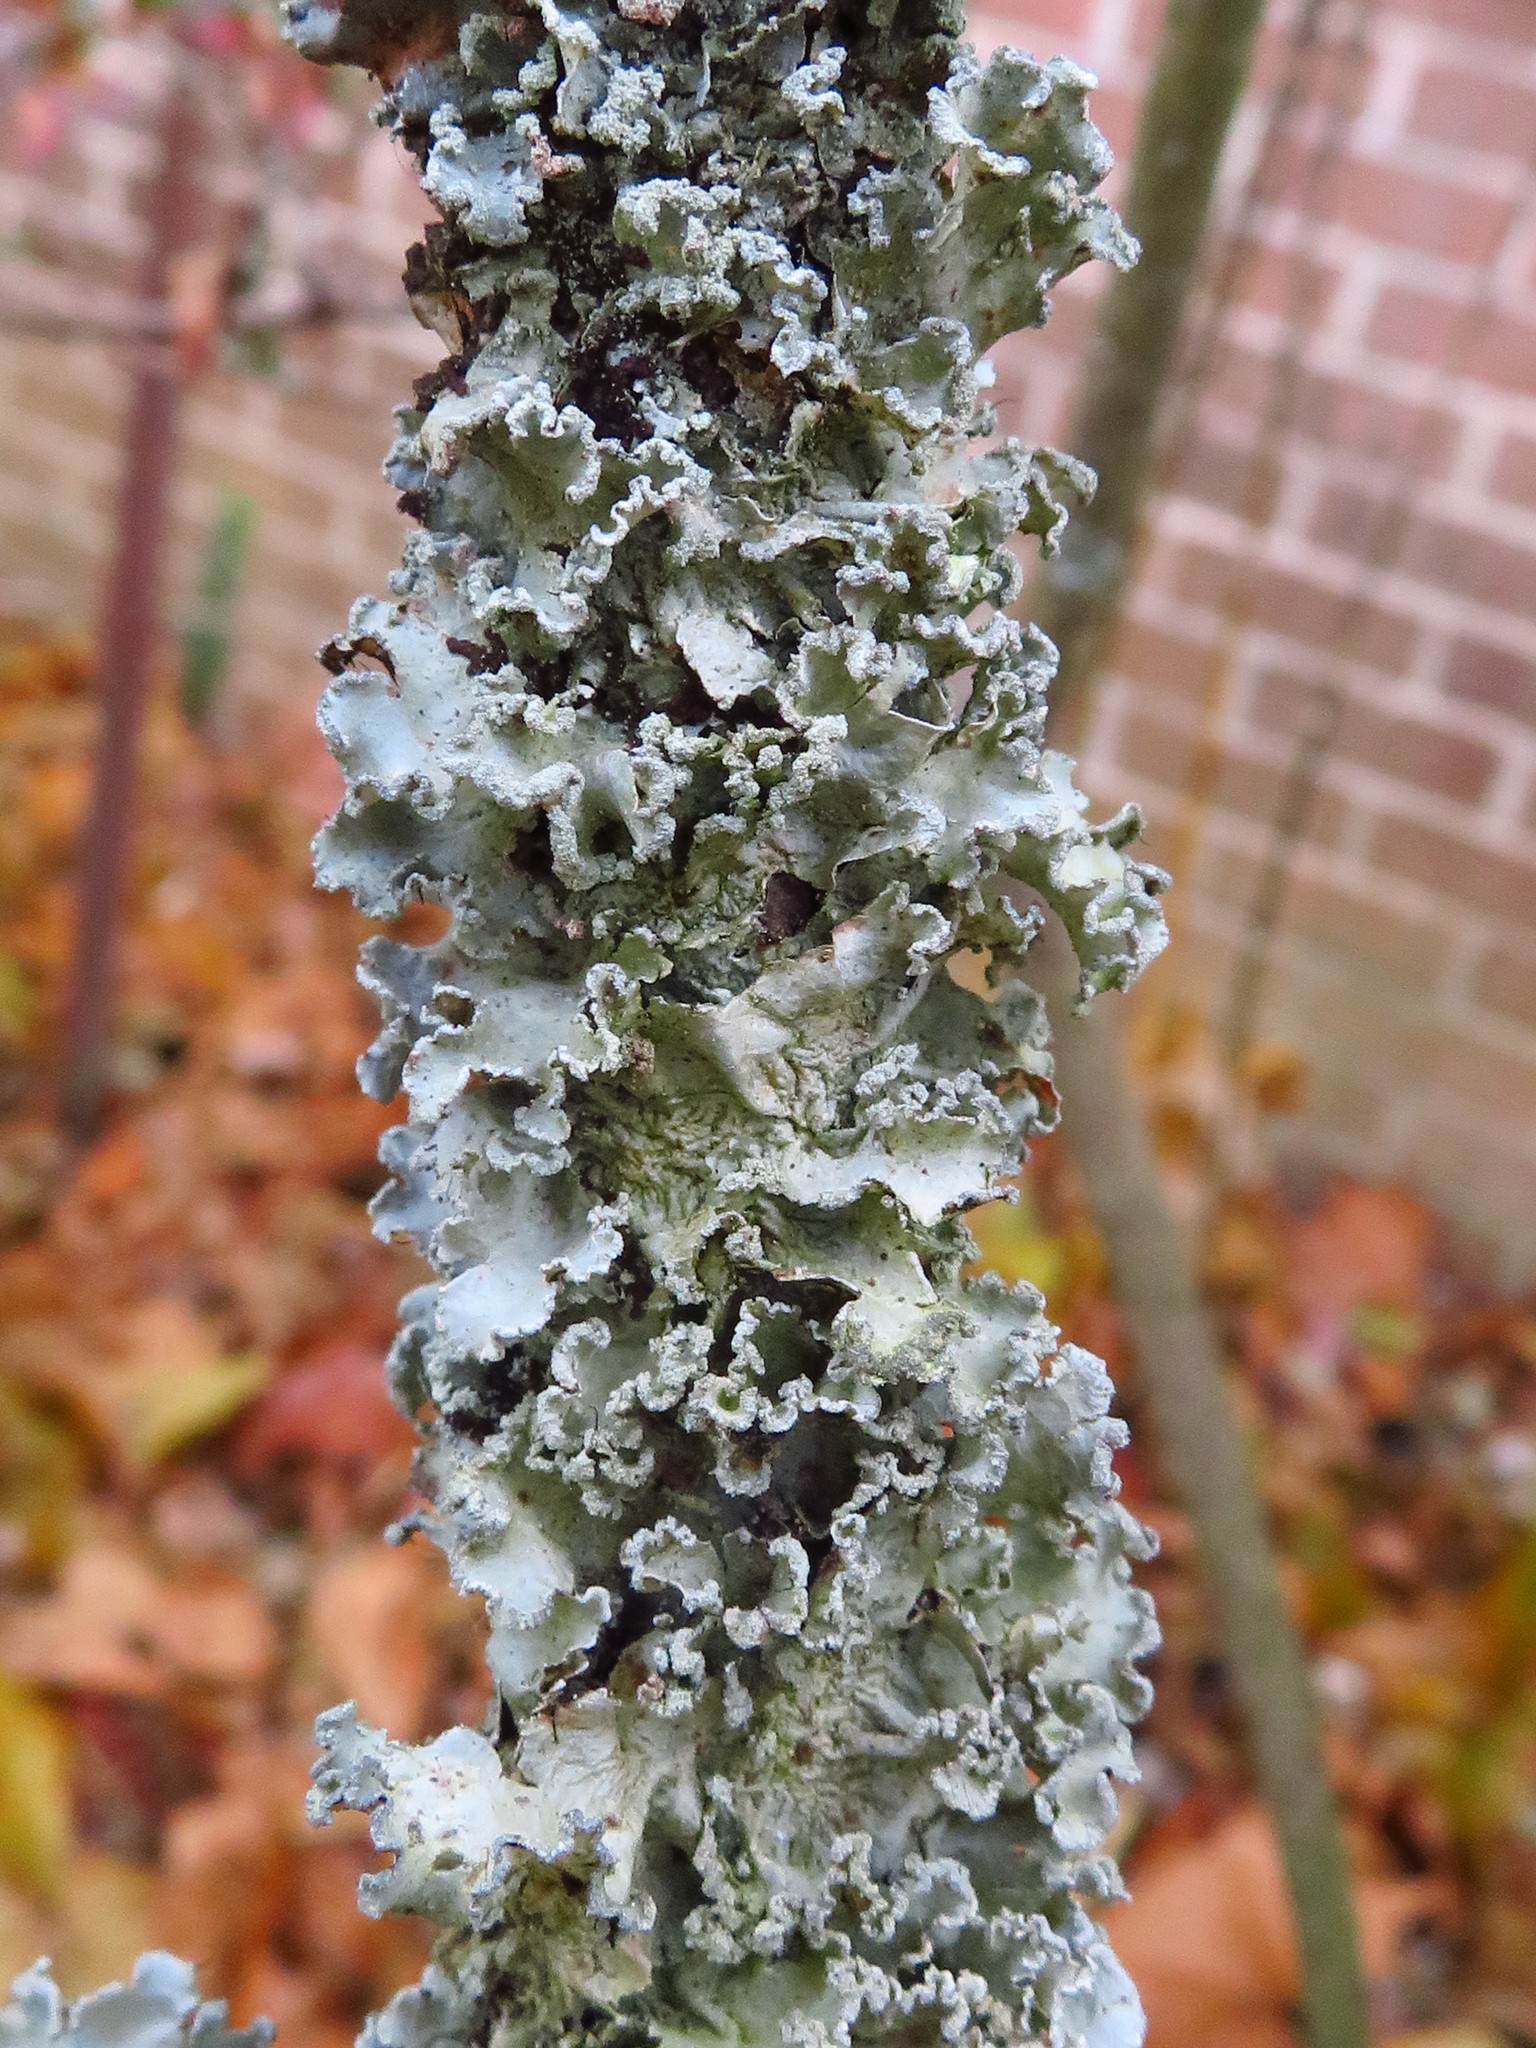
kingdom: Fungi
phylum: Ascomycota
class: Lecanoromycetes
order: Lecanorales
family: Parmeliaceae
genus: Parmotrema
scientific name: Parmotrema hypotropum
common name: Powdered ruffle lichen
